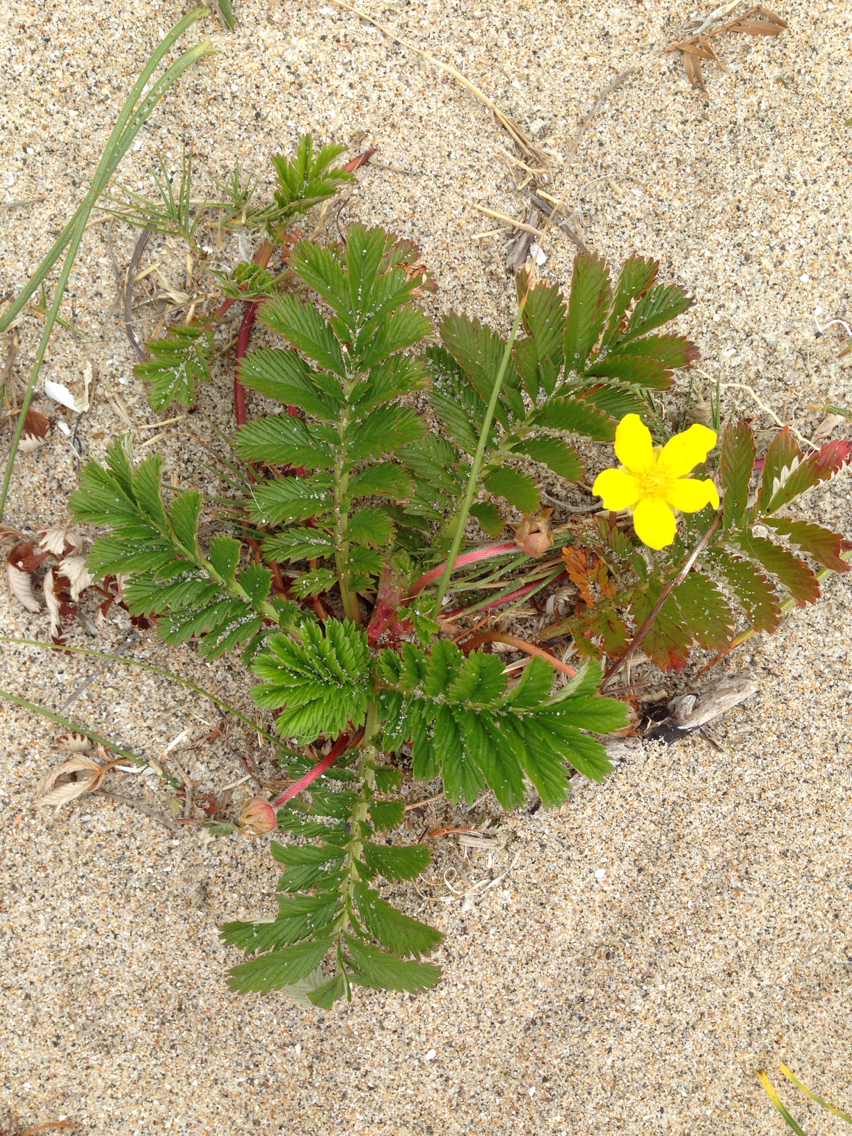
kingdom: Plantae
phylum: Tracheophyta
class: Magnoliopsida
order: Rosales
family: Rosaceae
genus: Argentina
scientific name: Argentina anserina
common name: Common silverweed
